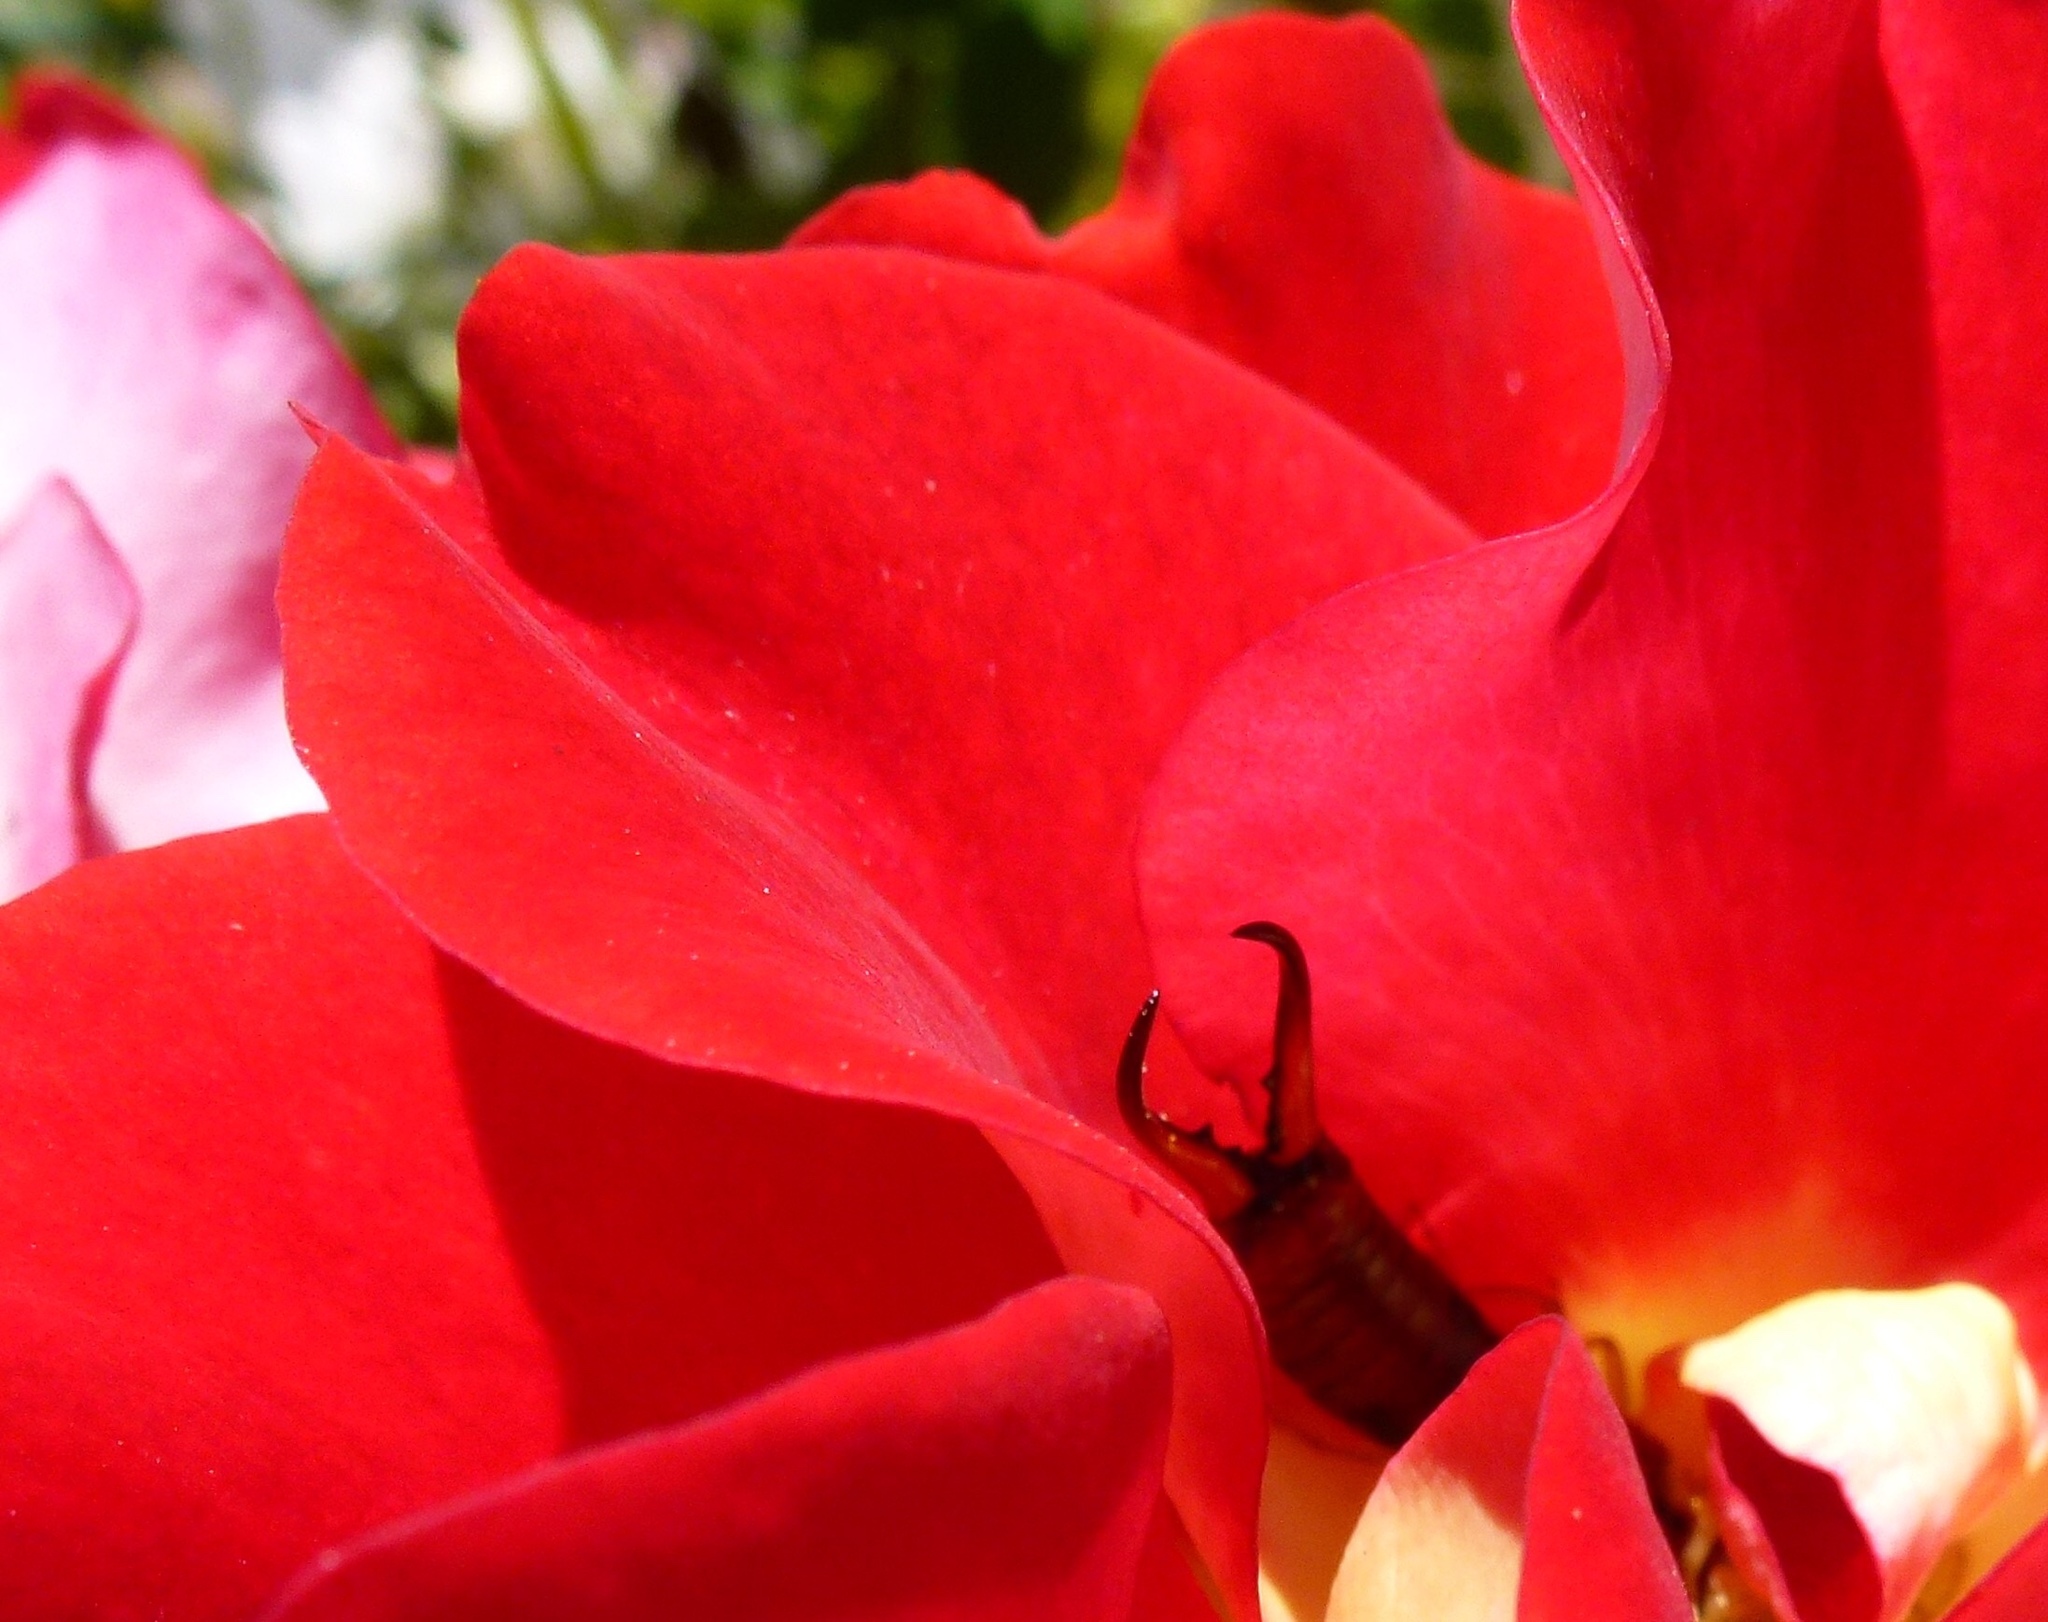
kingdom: Animalia
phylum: Arthropoda
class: Insecta
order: Dermaptera
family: Forficulidae
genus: Forficula
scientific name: Forficula
